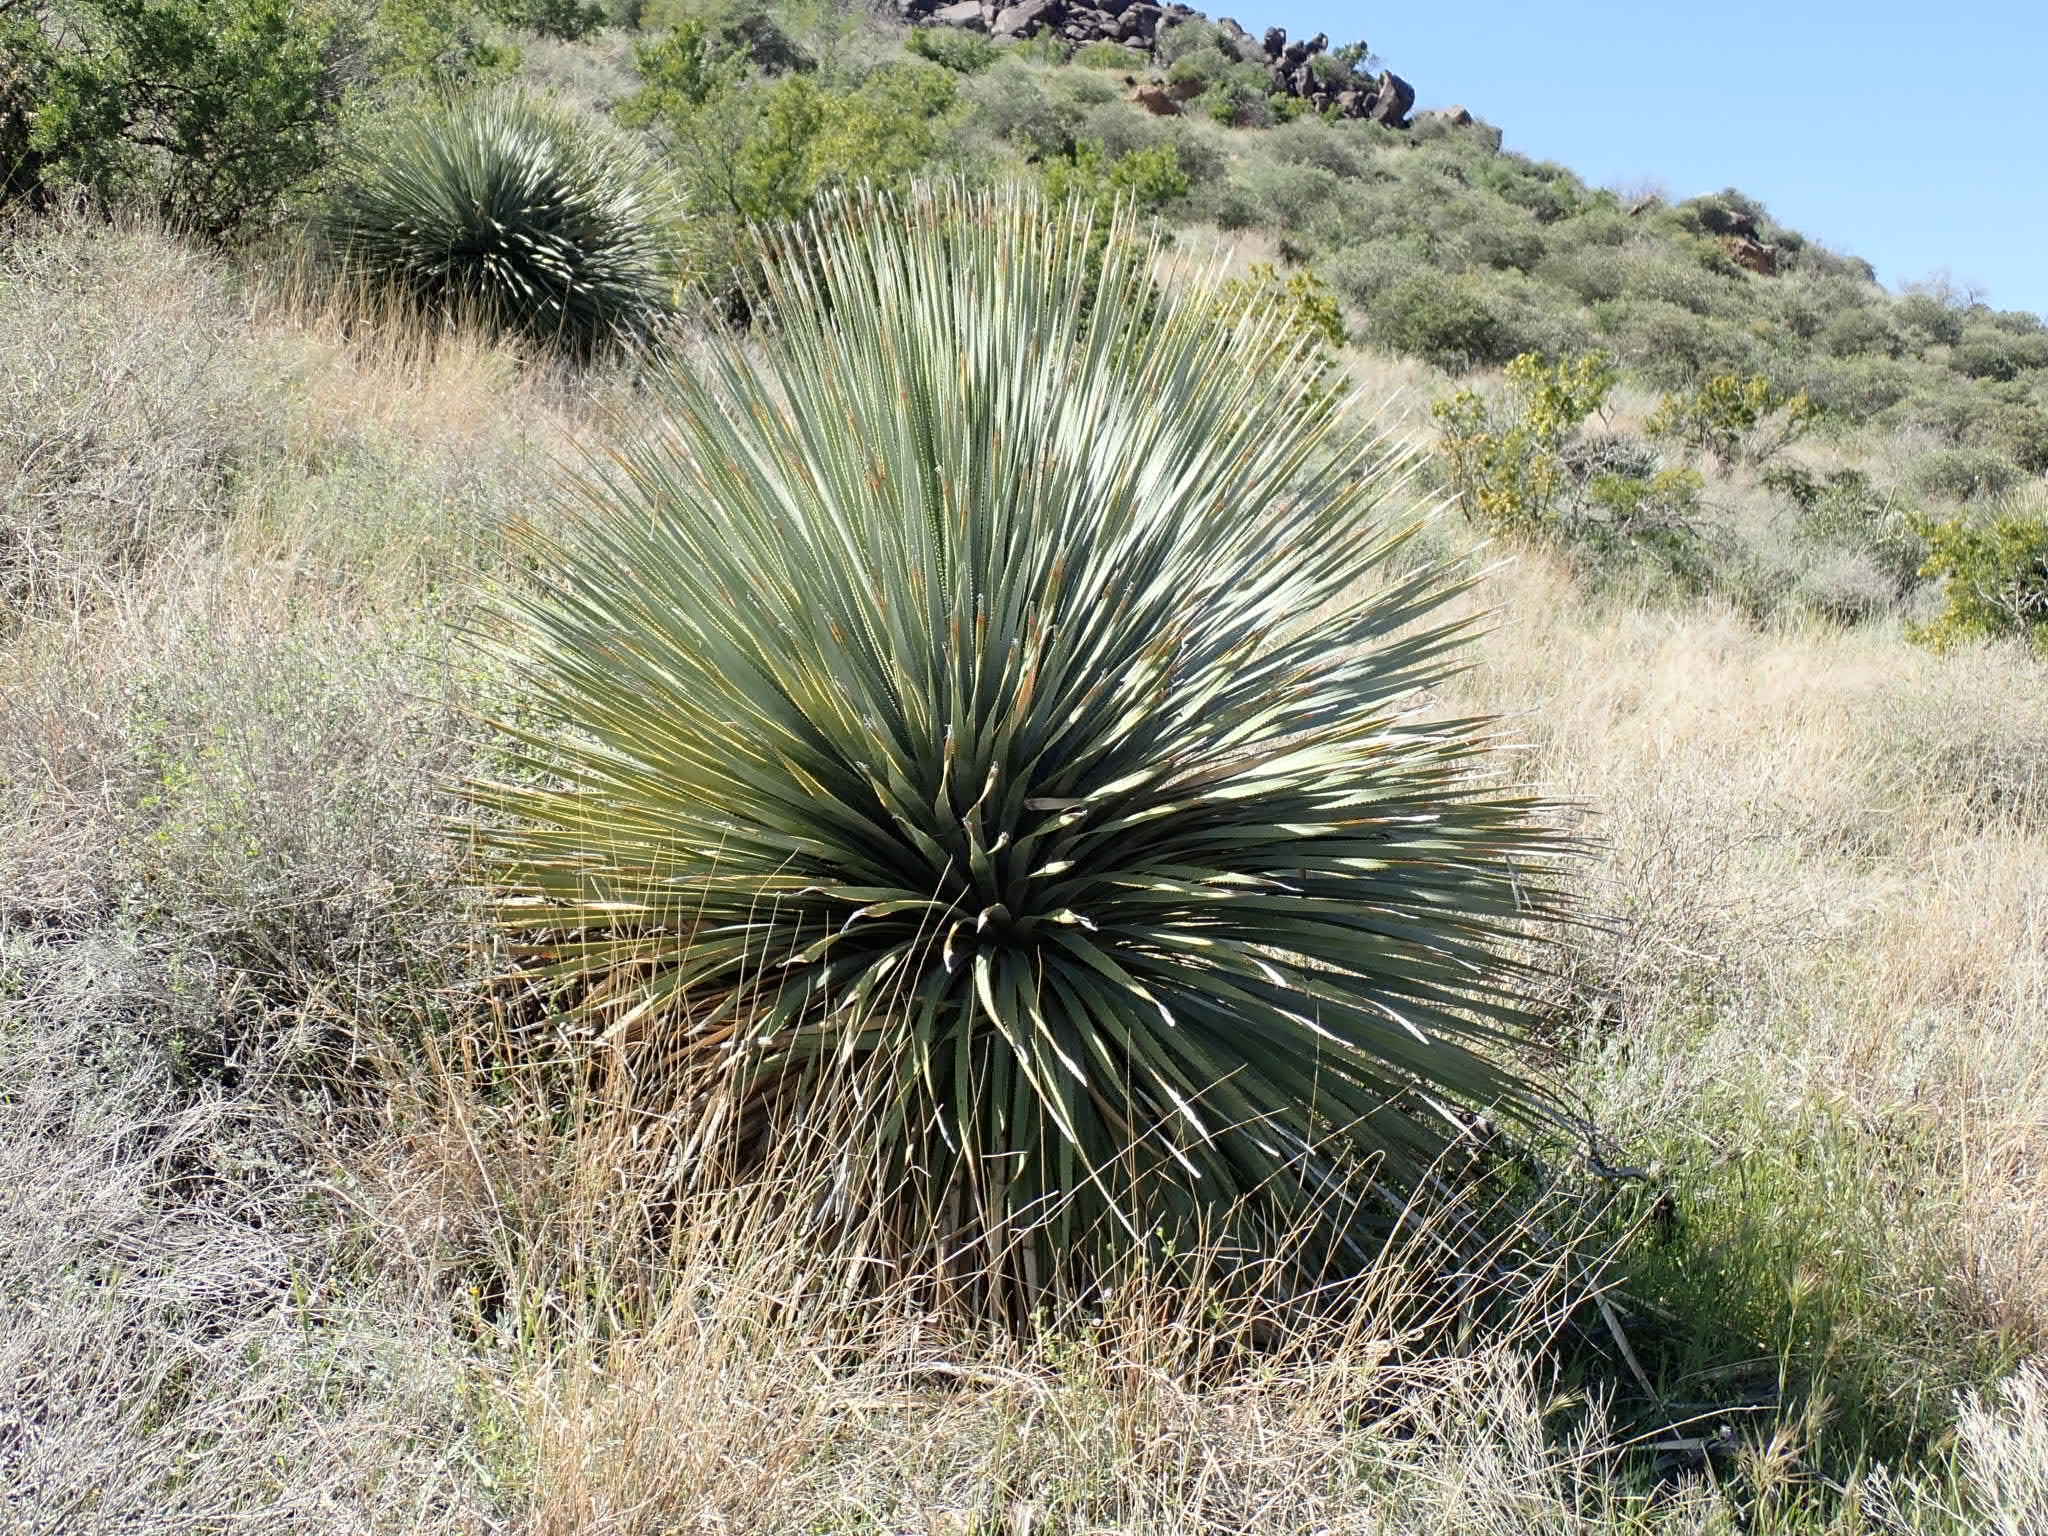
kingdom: Plantae
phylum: Tracheophyta
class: Liliopsida
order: Asparagales
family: Asparagaceae
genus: Dasylirion
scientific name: Dasylirion wheeleri
